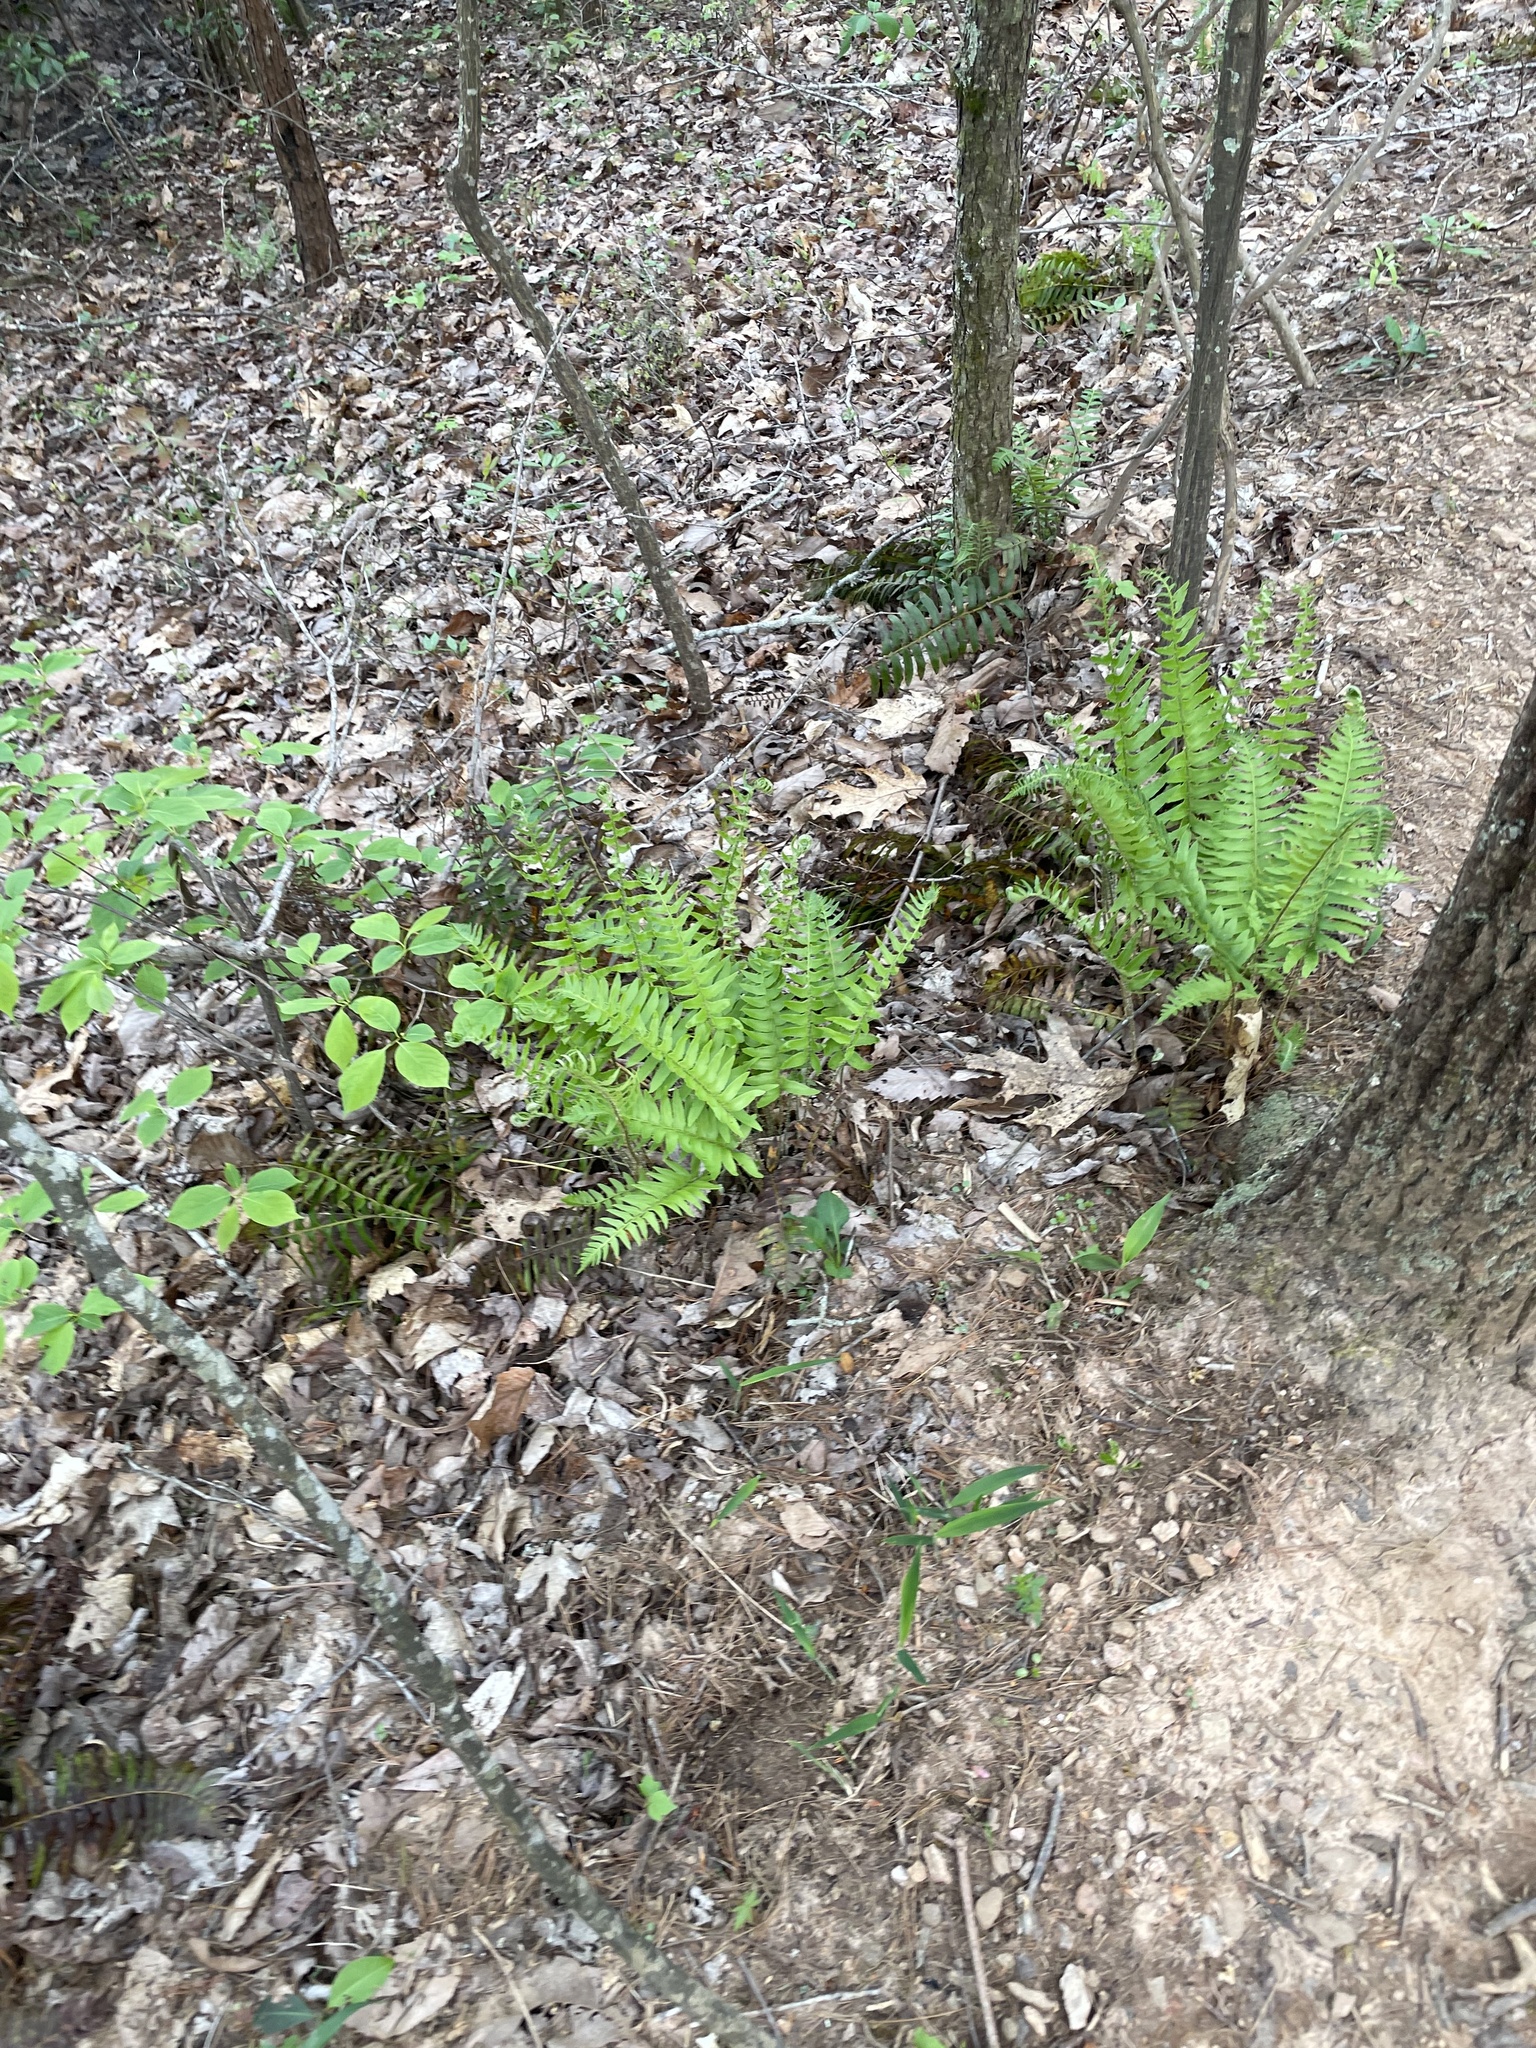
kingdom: Plantae
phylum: Tracheophyta
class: Polypodiopsida
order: Polypodiales
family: Dryopteridaceae
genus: Polystichum
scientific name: Polystichum acrostichoides
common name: Christmas fern
